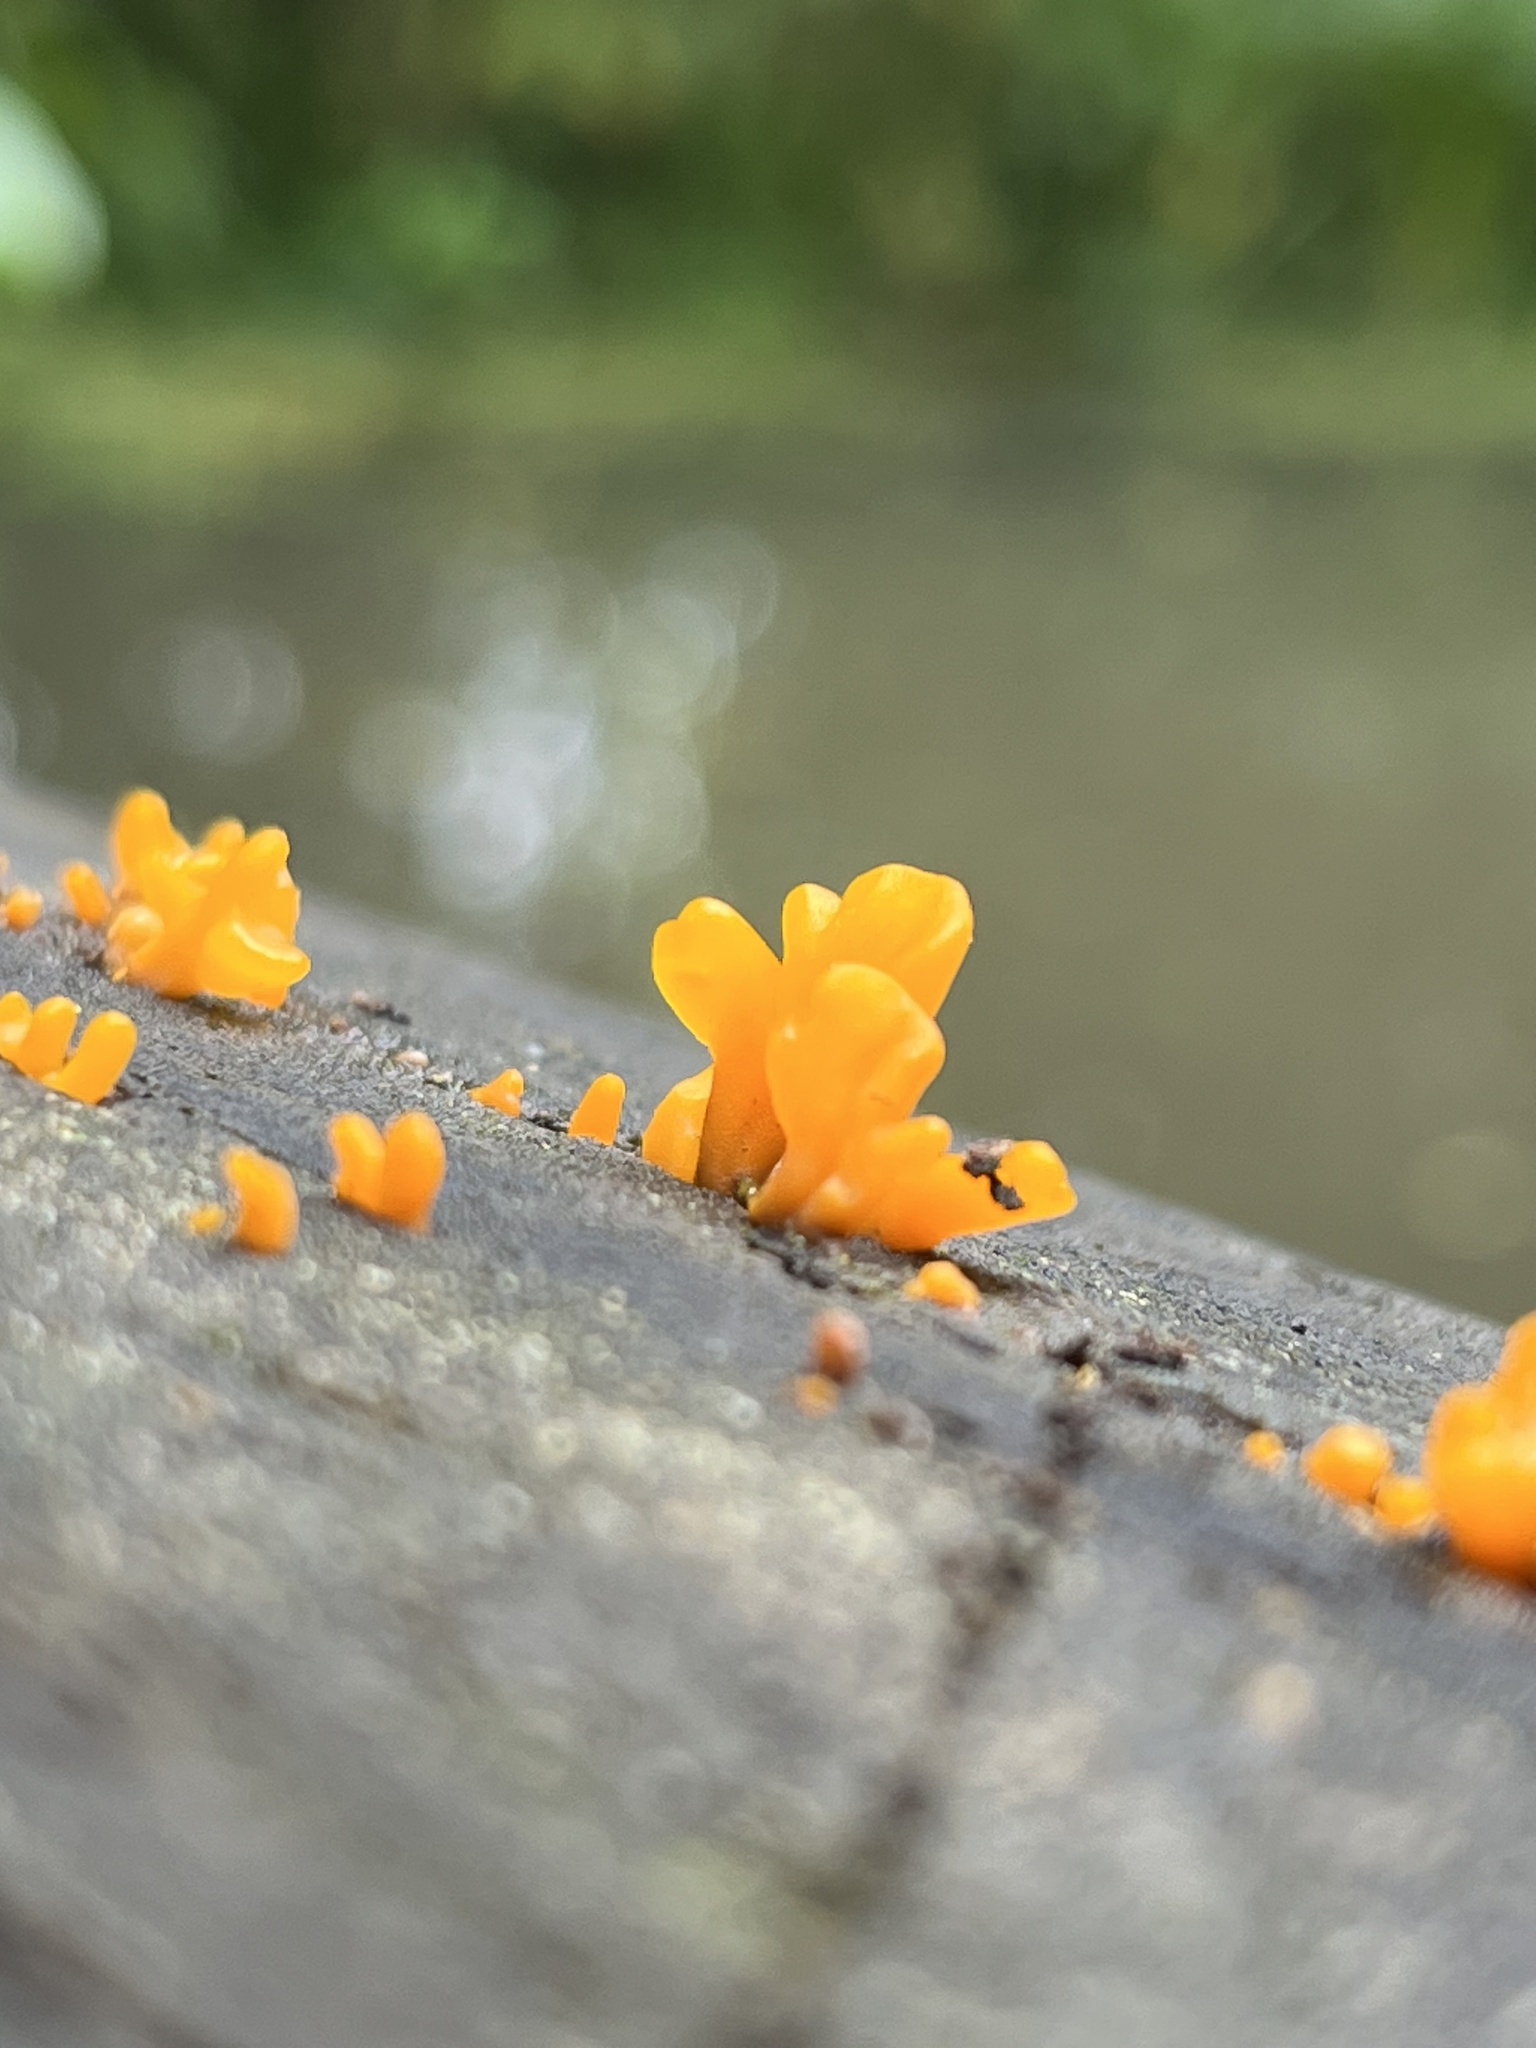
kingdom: Fungi
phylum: Basidiomycota
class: Dacrymycetes
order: Dacrymycetales
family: Dacrymycetaceae
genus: Dacrymyces
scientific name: Dacrymyces spathularius
